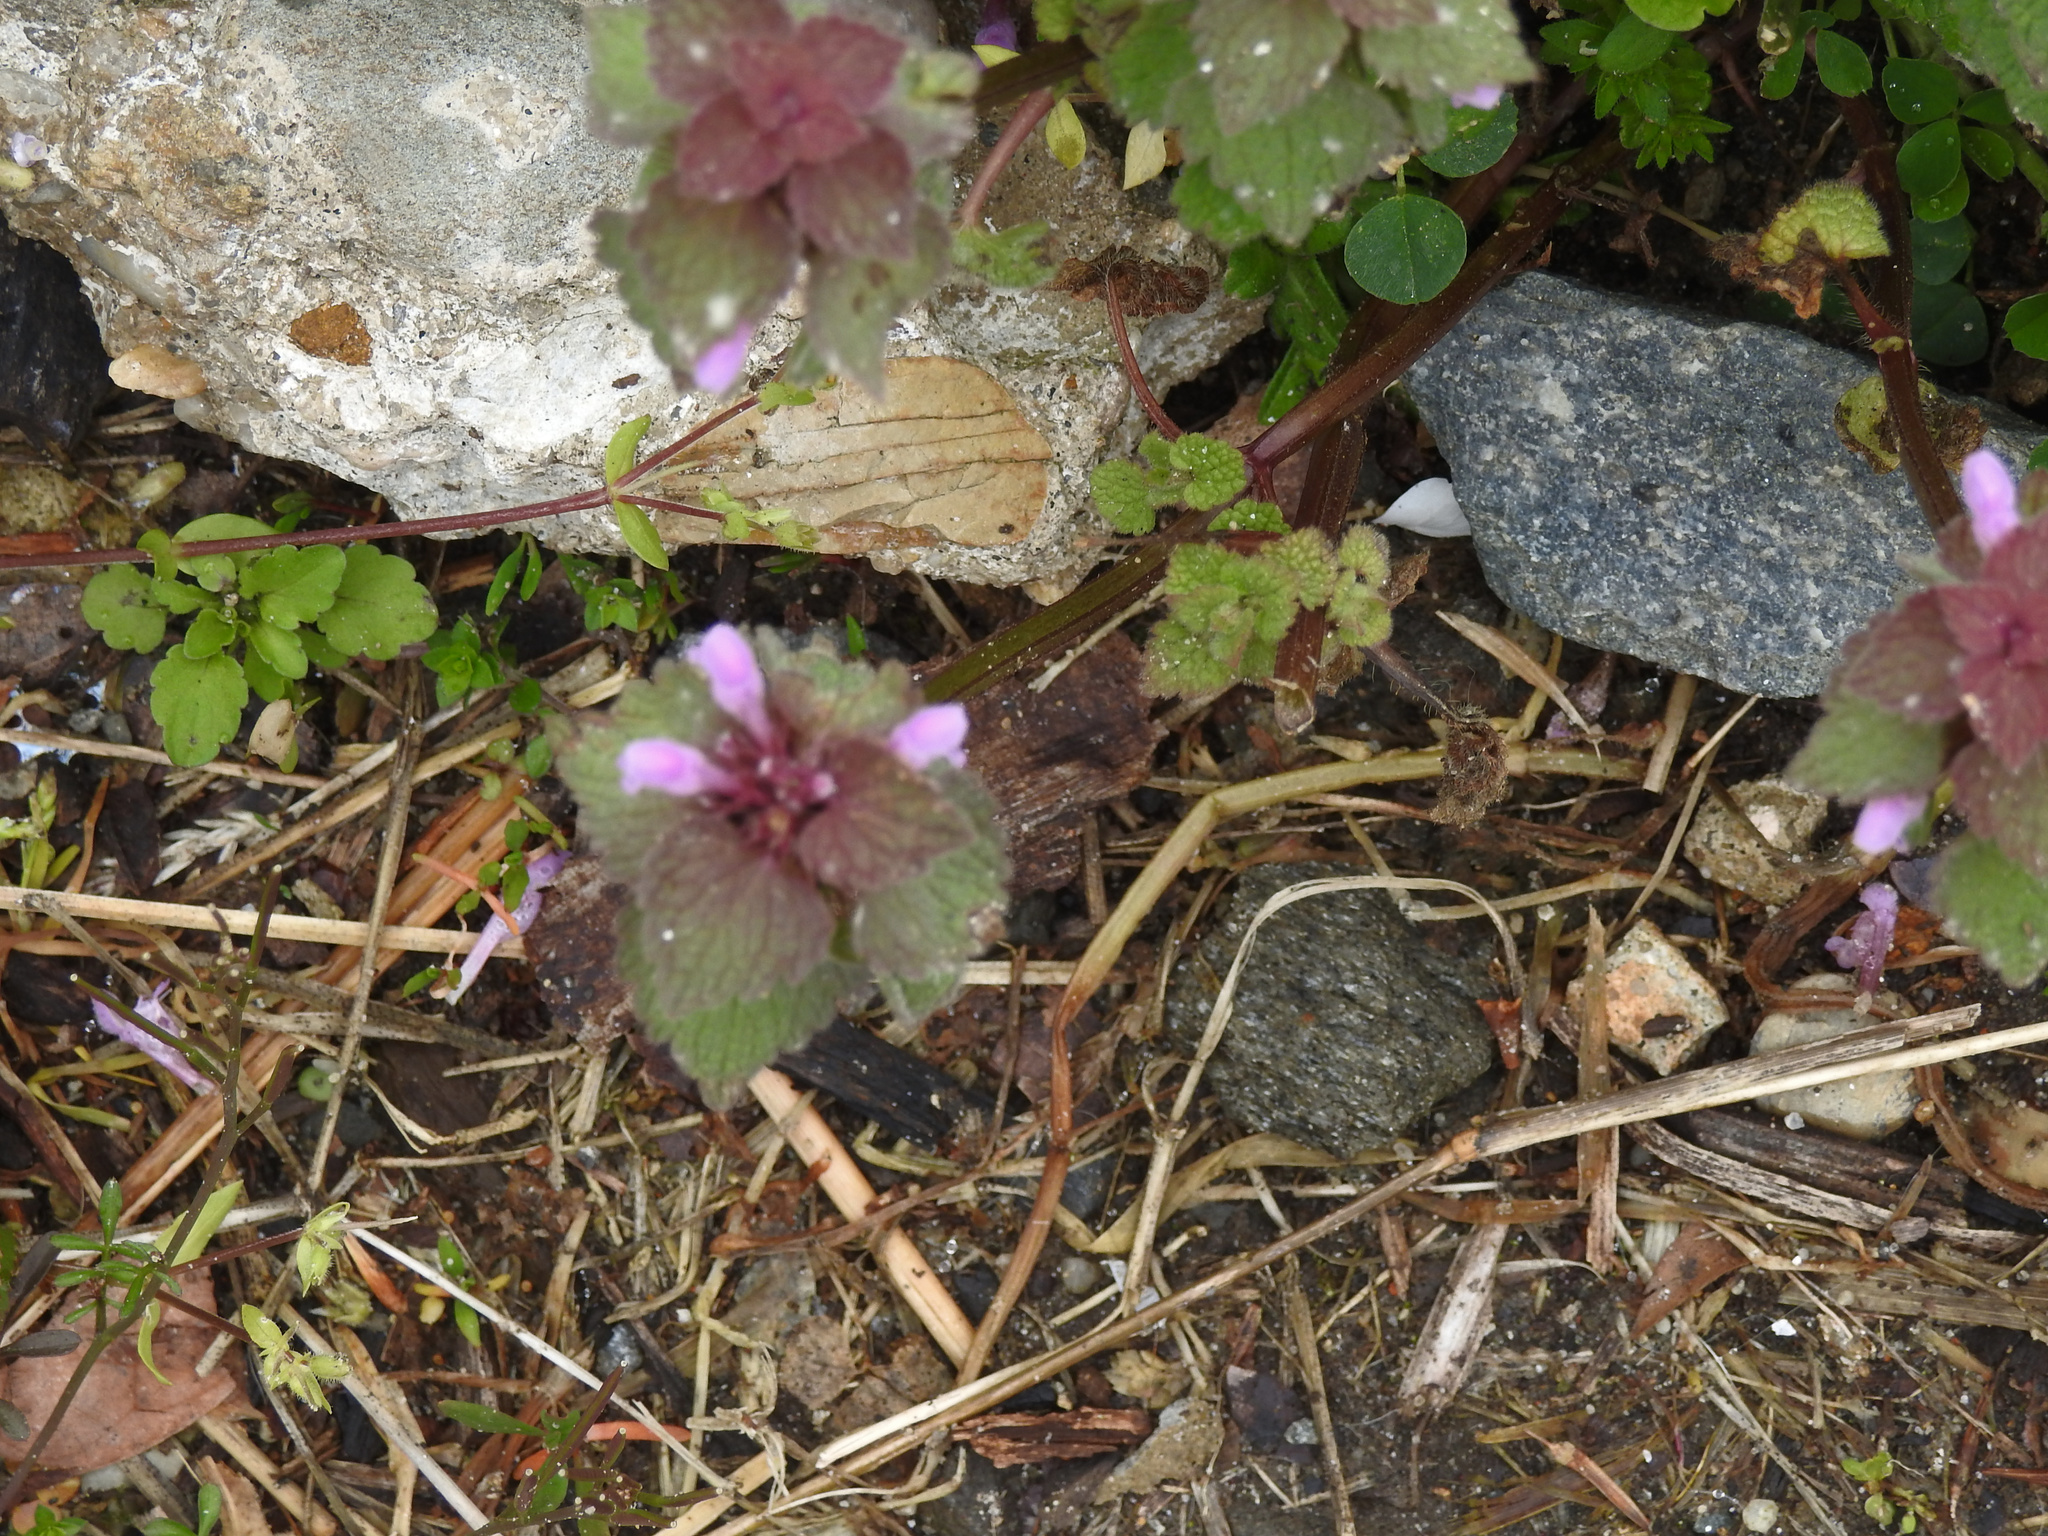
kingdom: Plantae
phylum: Tracheophyta
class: Magnoliopsida
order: Lamiales
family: Lamiaceae
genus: Lamium
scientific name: Lamium purpureum
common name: Red dead-nettle
